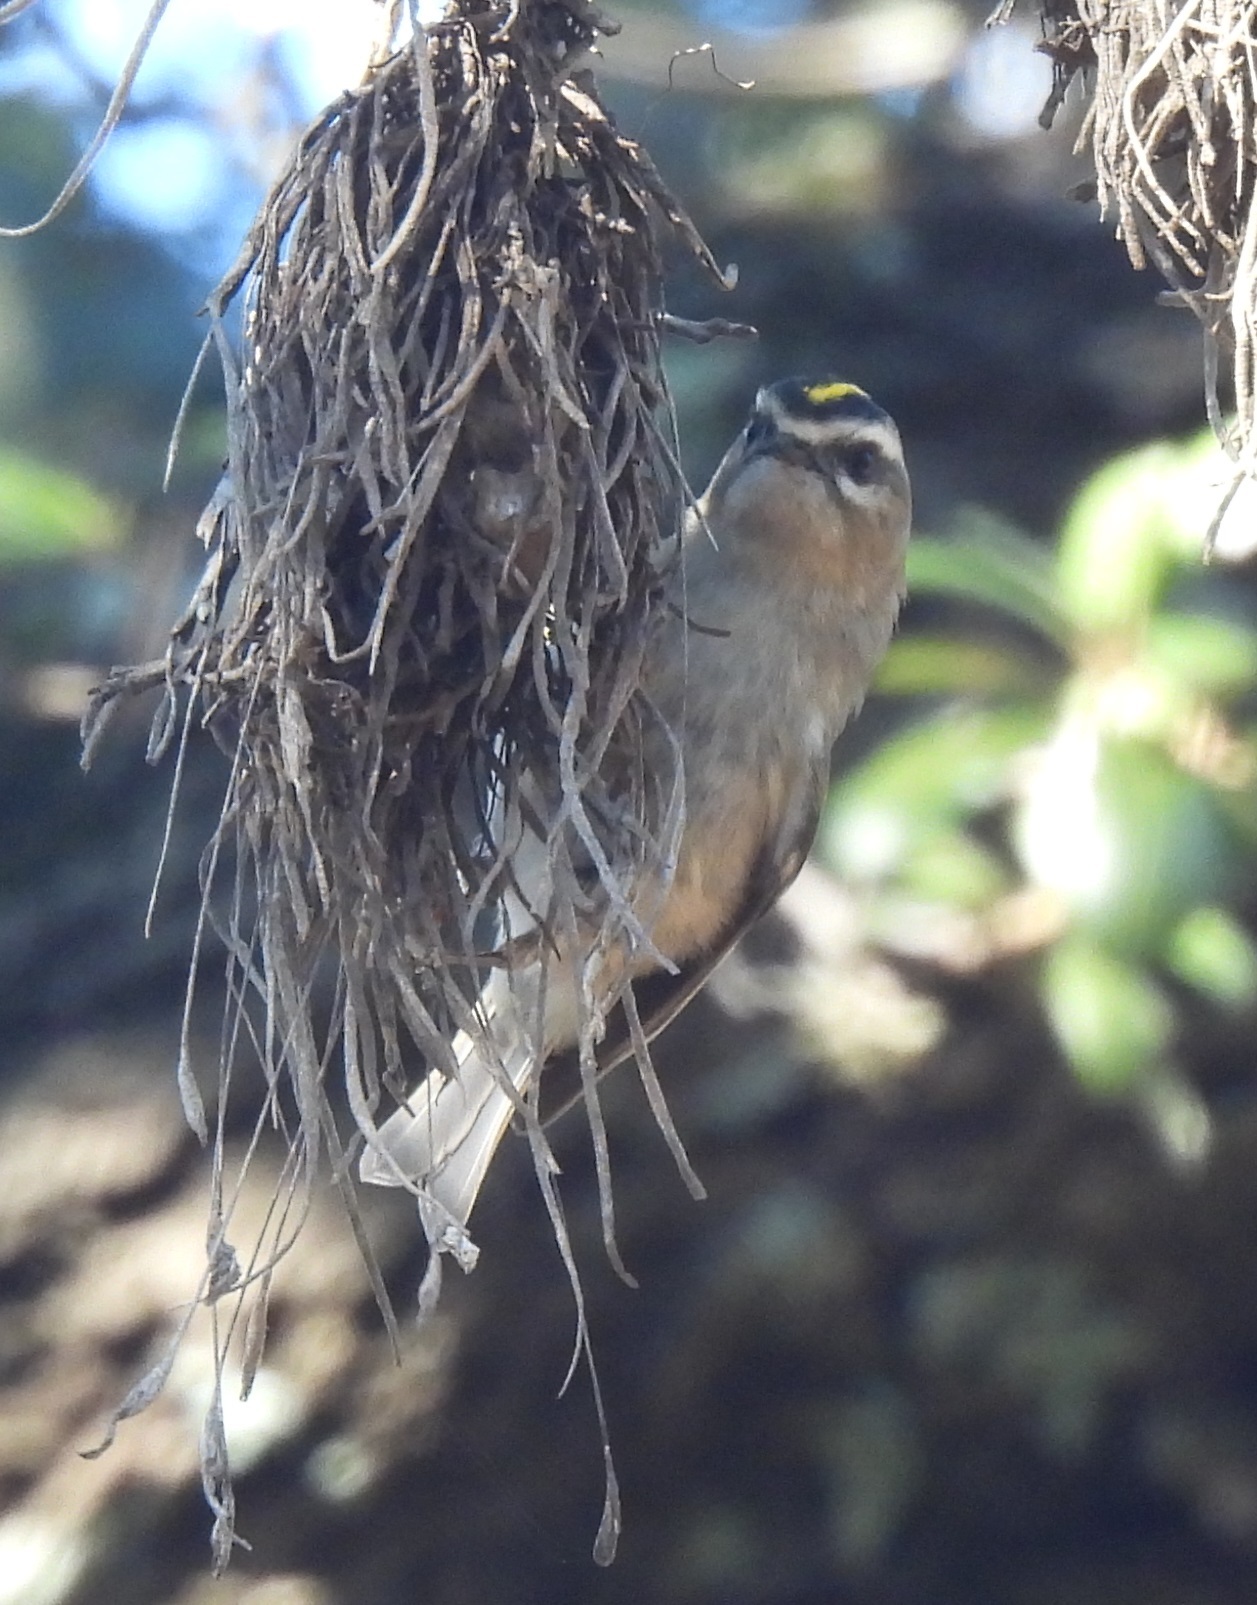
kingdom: Animalia
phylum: Chordata
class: Aves
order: Passeriformes
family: Regulidae
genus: Regulus
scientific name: Regulus satrapa
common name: Golden-crowned kinglet
